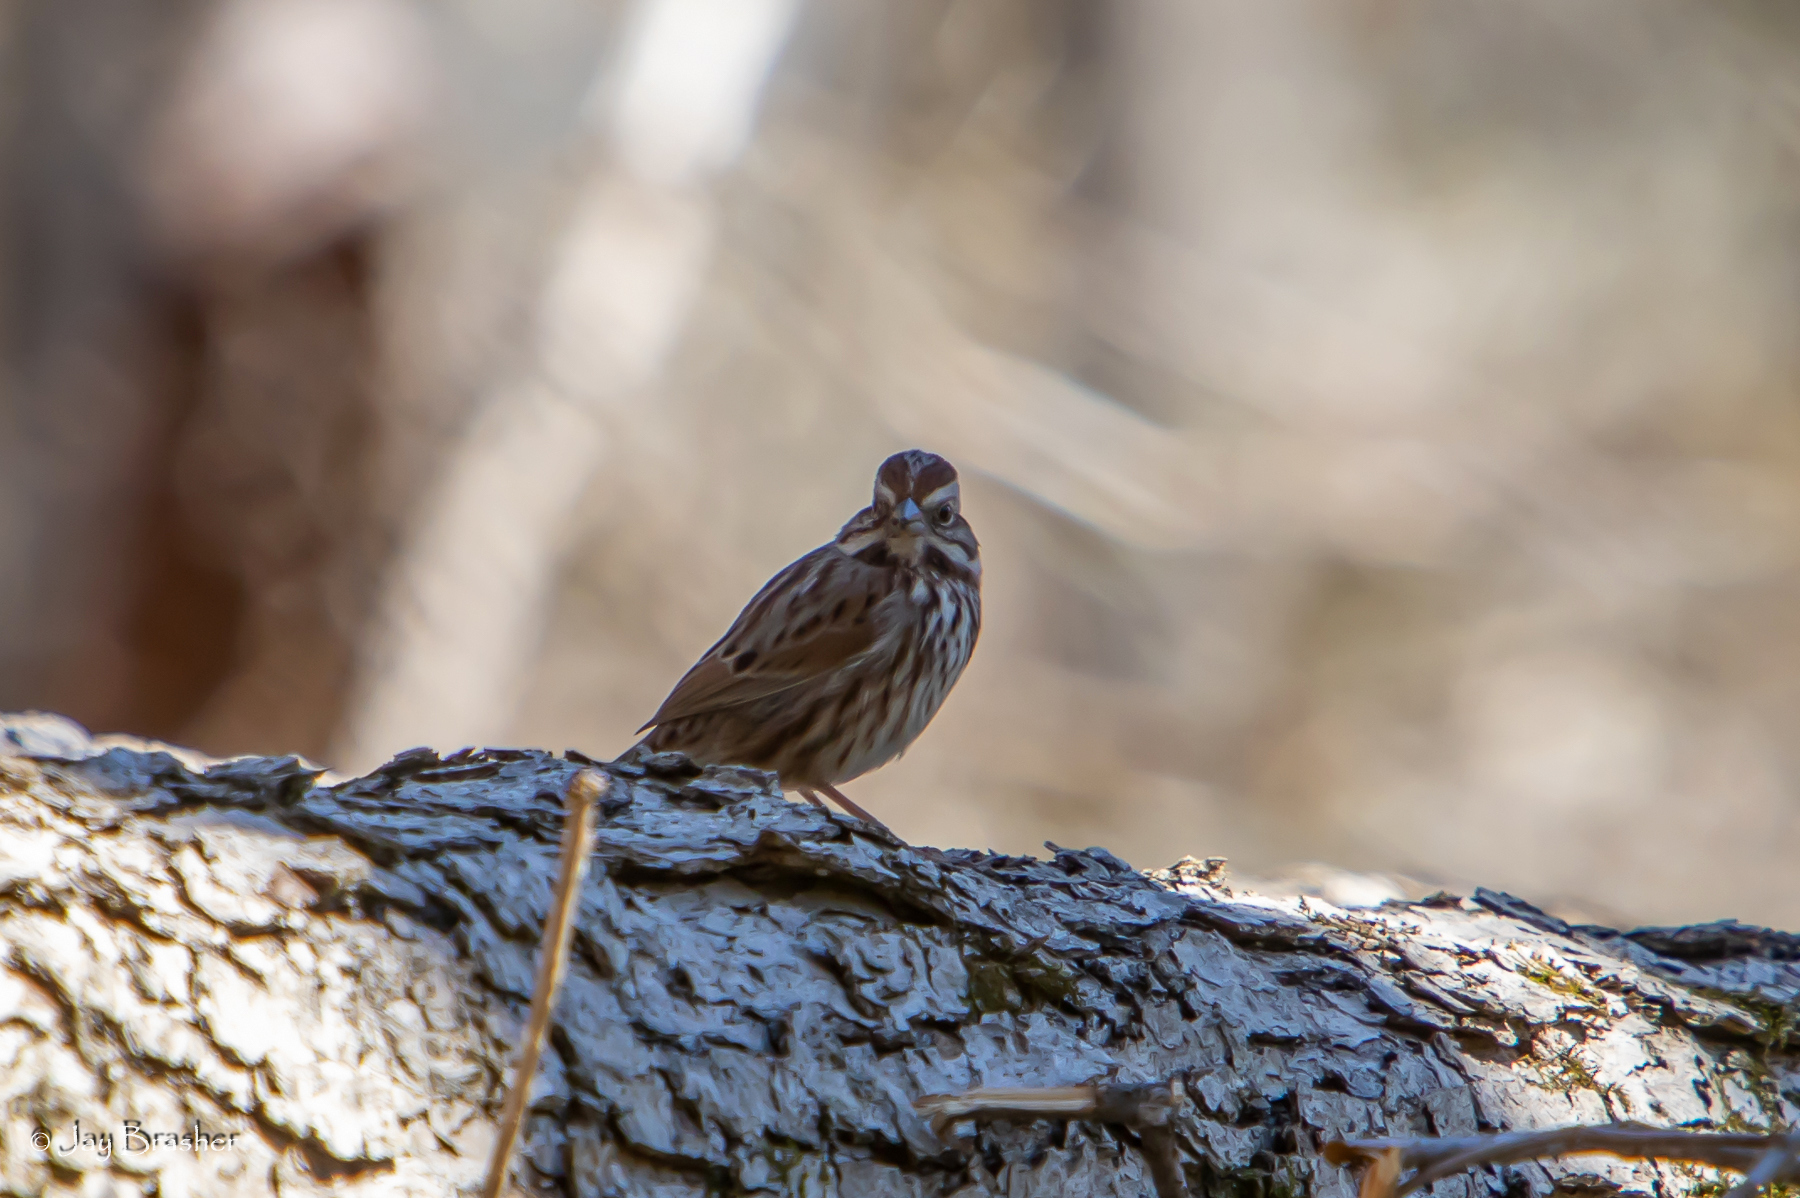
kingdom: Animalia
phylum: Chordata
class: Aves
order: Passeriformes
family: Passerellidae
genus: Melospiza
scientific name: Melospiza melodia
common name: Song sparrow
